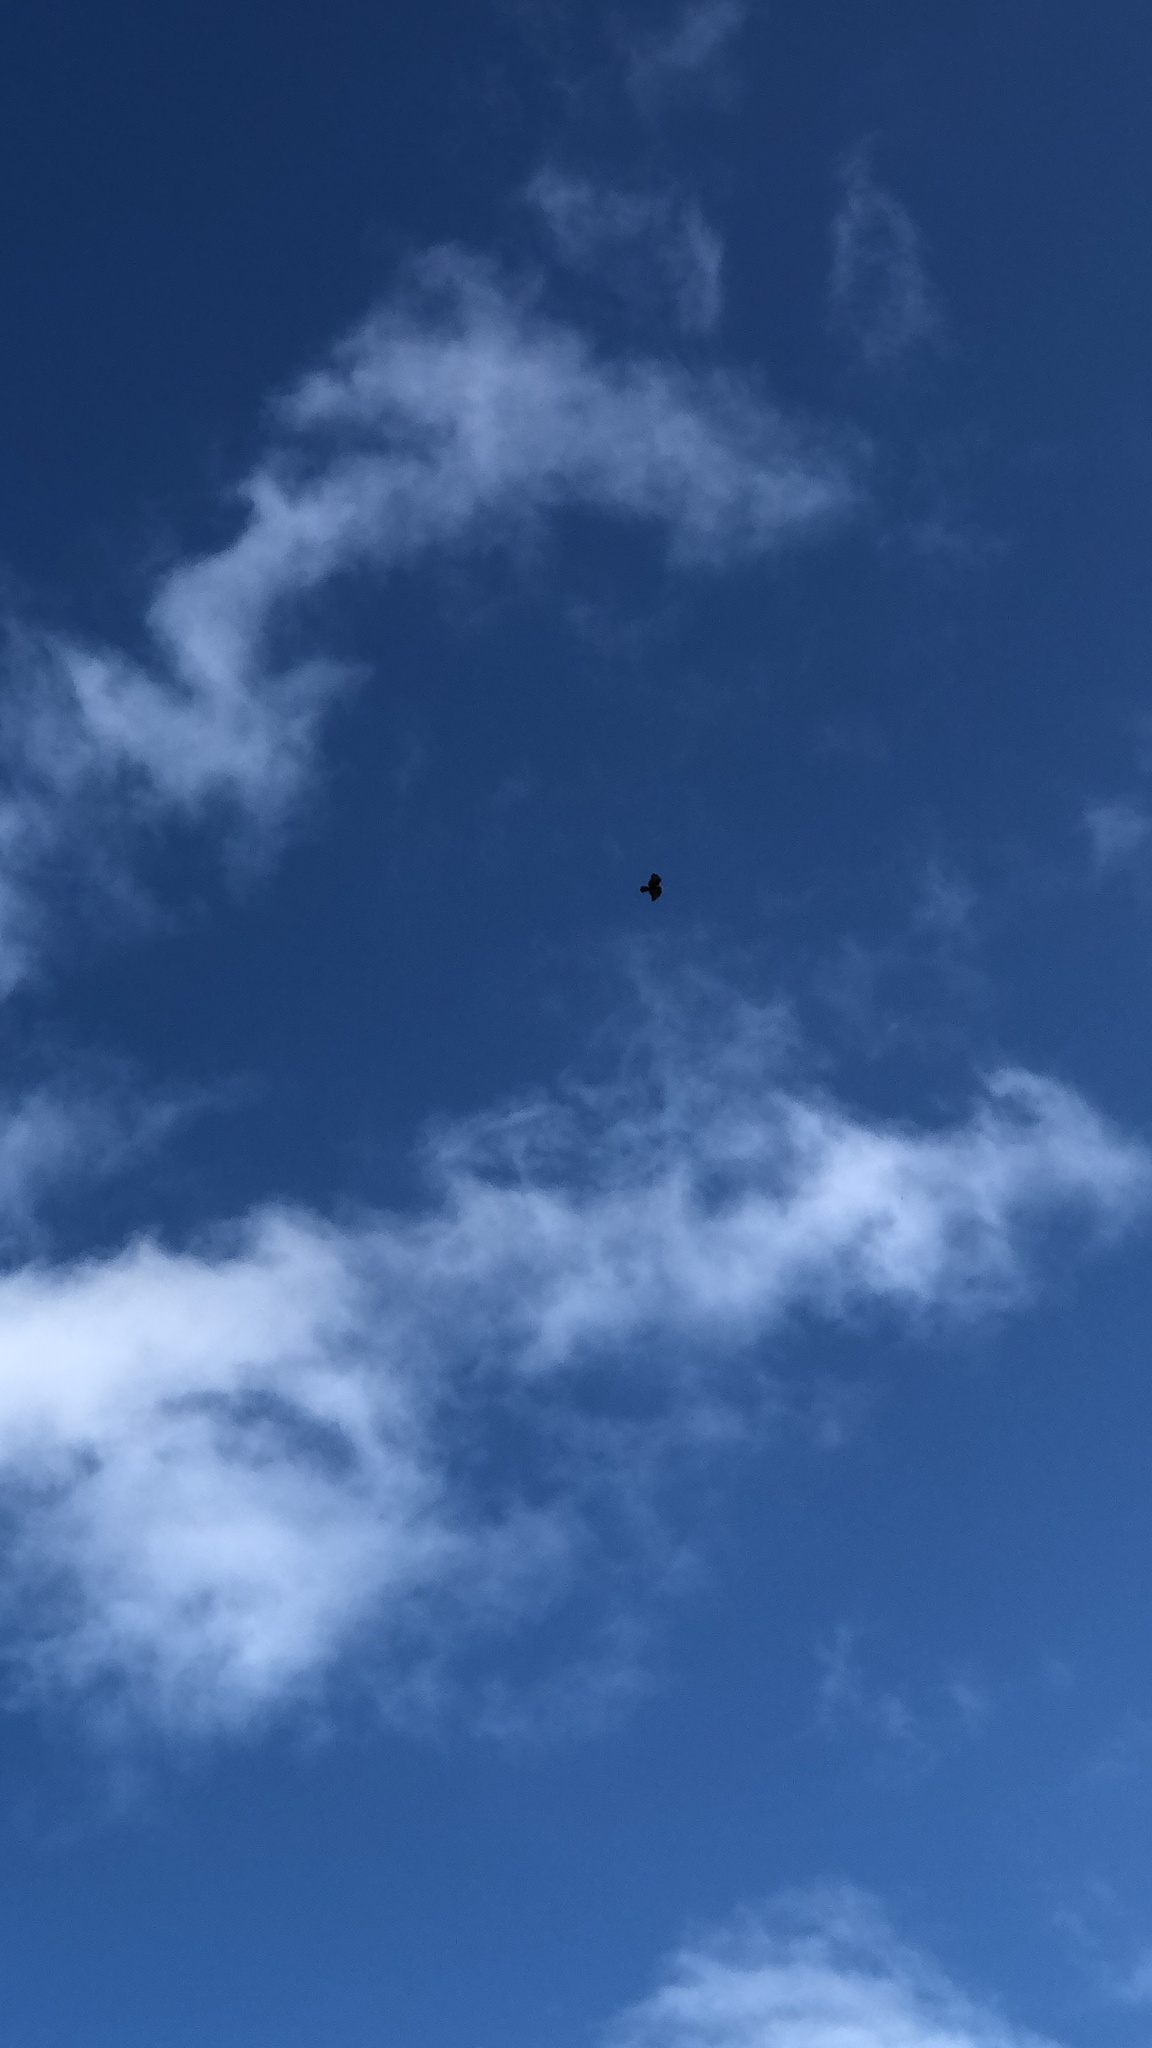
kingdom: Animalia
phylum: Chordata
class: Aves
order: Accipitriformes
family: Accipitridae
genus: Buteo
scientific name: Buteo buteo
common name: Common buzzard
